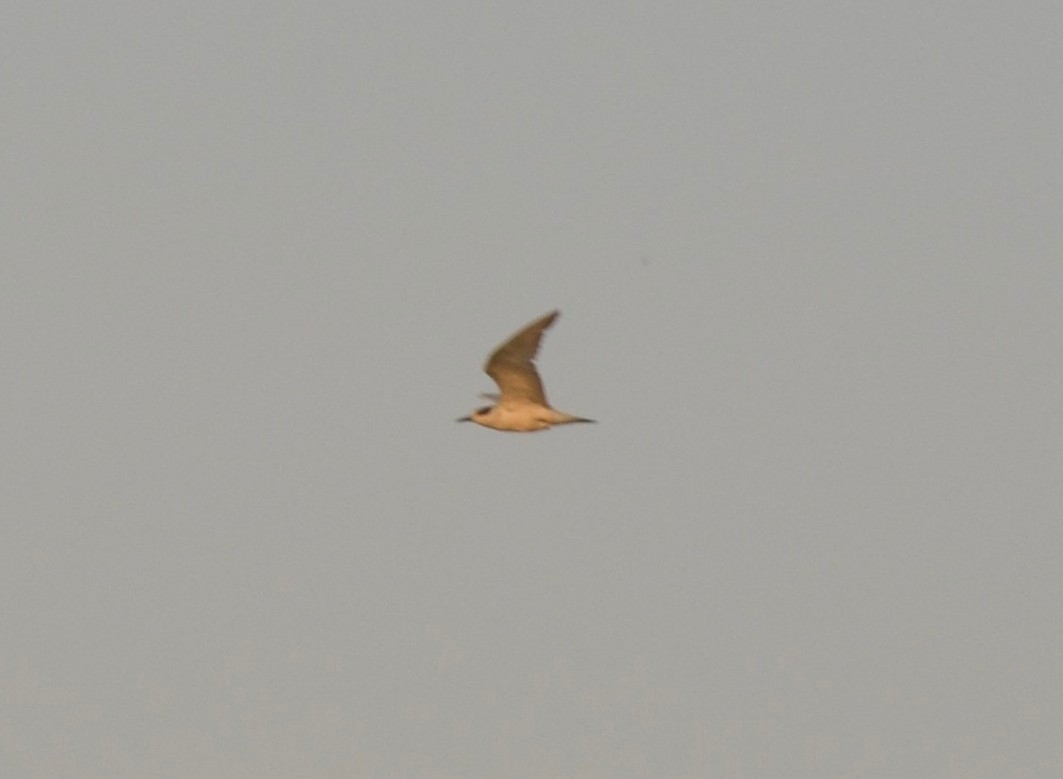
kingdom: Animalia
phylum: Chordata
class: Aves
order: Charadriiformes
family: Laridae
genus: Chlidonias
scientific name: Chlidonias hybrida
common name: Whiskered tern
